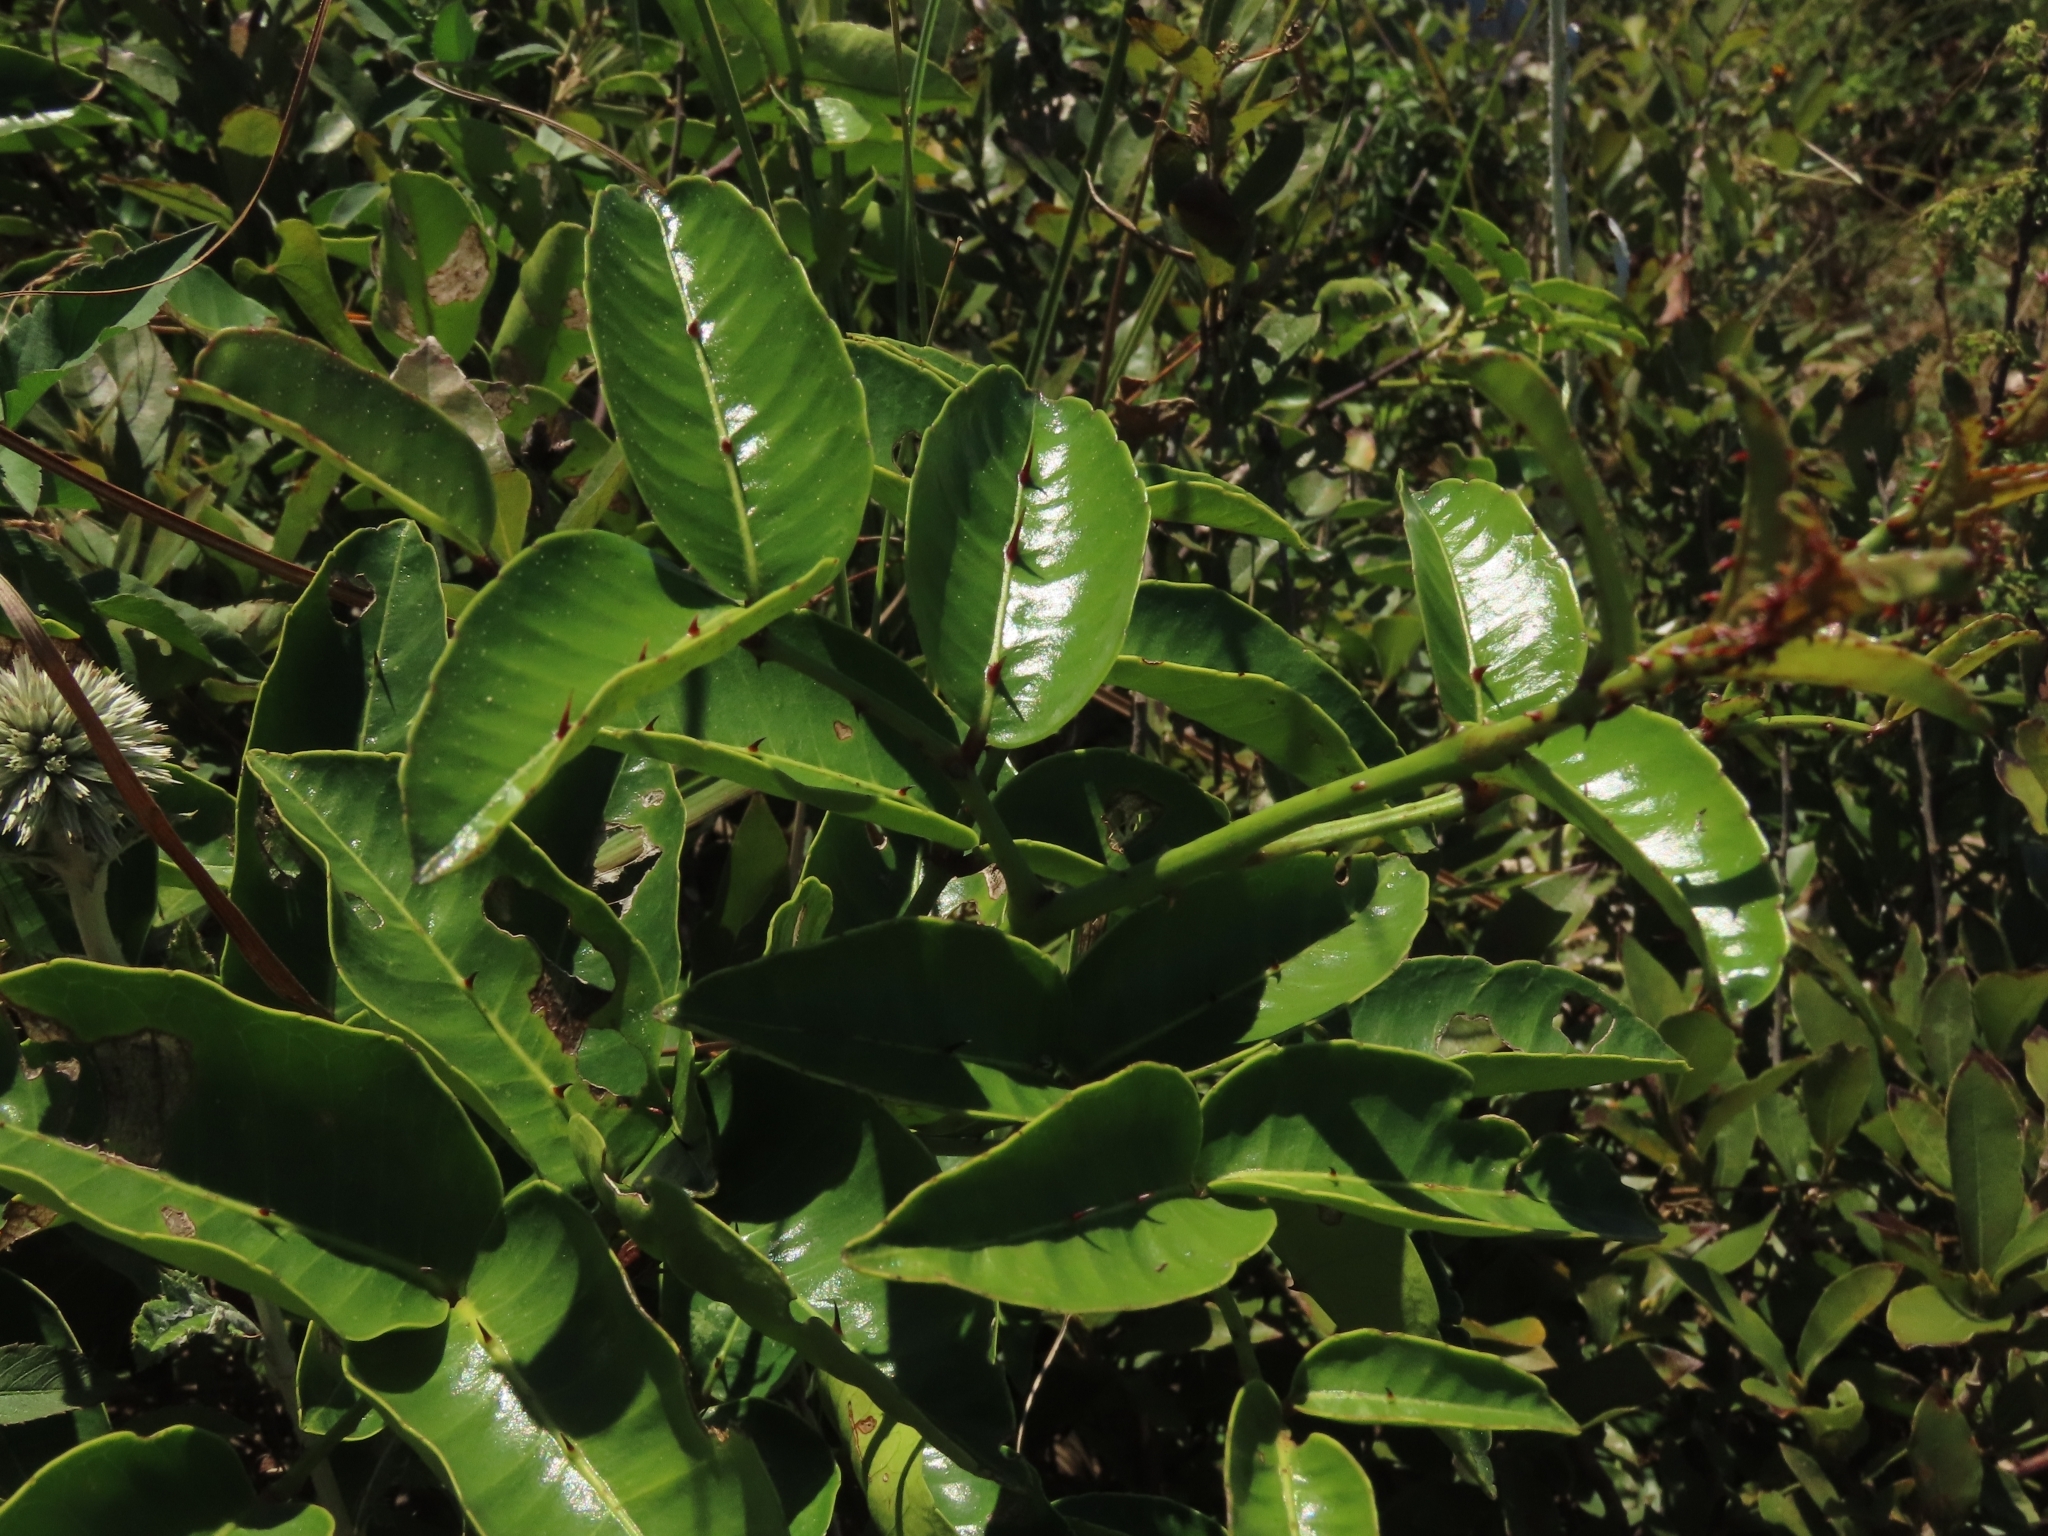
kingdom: Plantae
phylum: Tracheophyta
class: Magnoliopsida
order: Sapindales
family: Rutaceae
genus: Zanthoxylum
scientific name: Zanthoxylum nitidum
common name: Shiny-leaf prickly-ash
